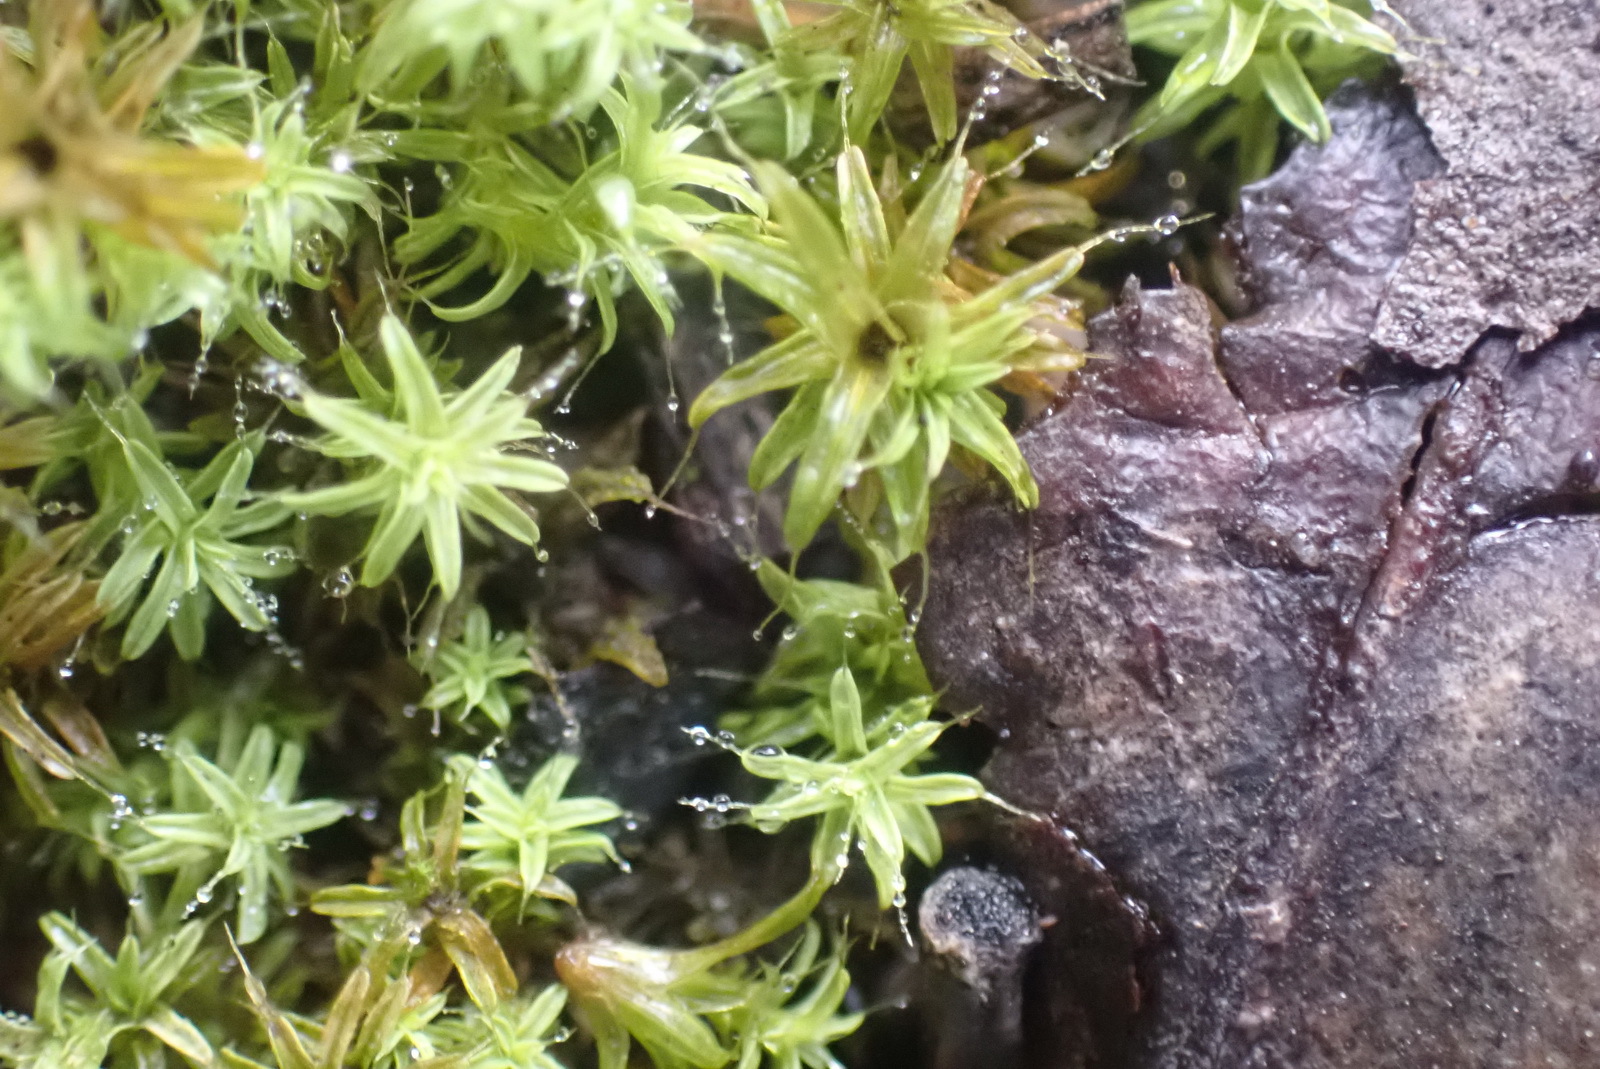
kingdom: Plantae
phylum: Bryophyta
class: Bryopsida
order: Pottiales
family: Pottiaceae
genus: Pseudocrossidium
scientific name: Pseudocrossidium crinitum
